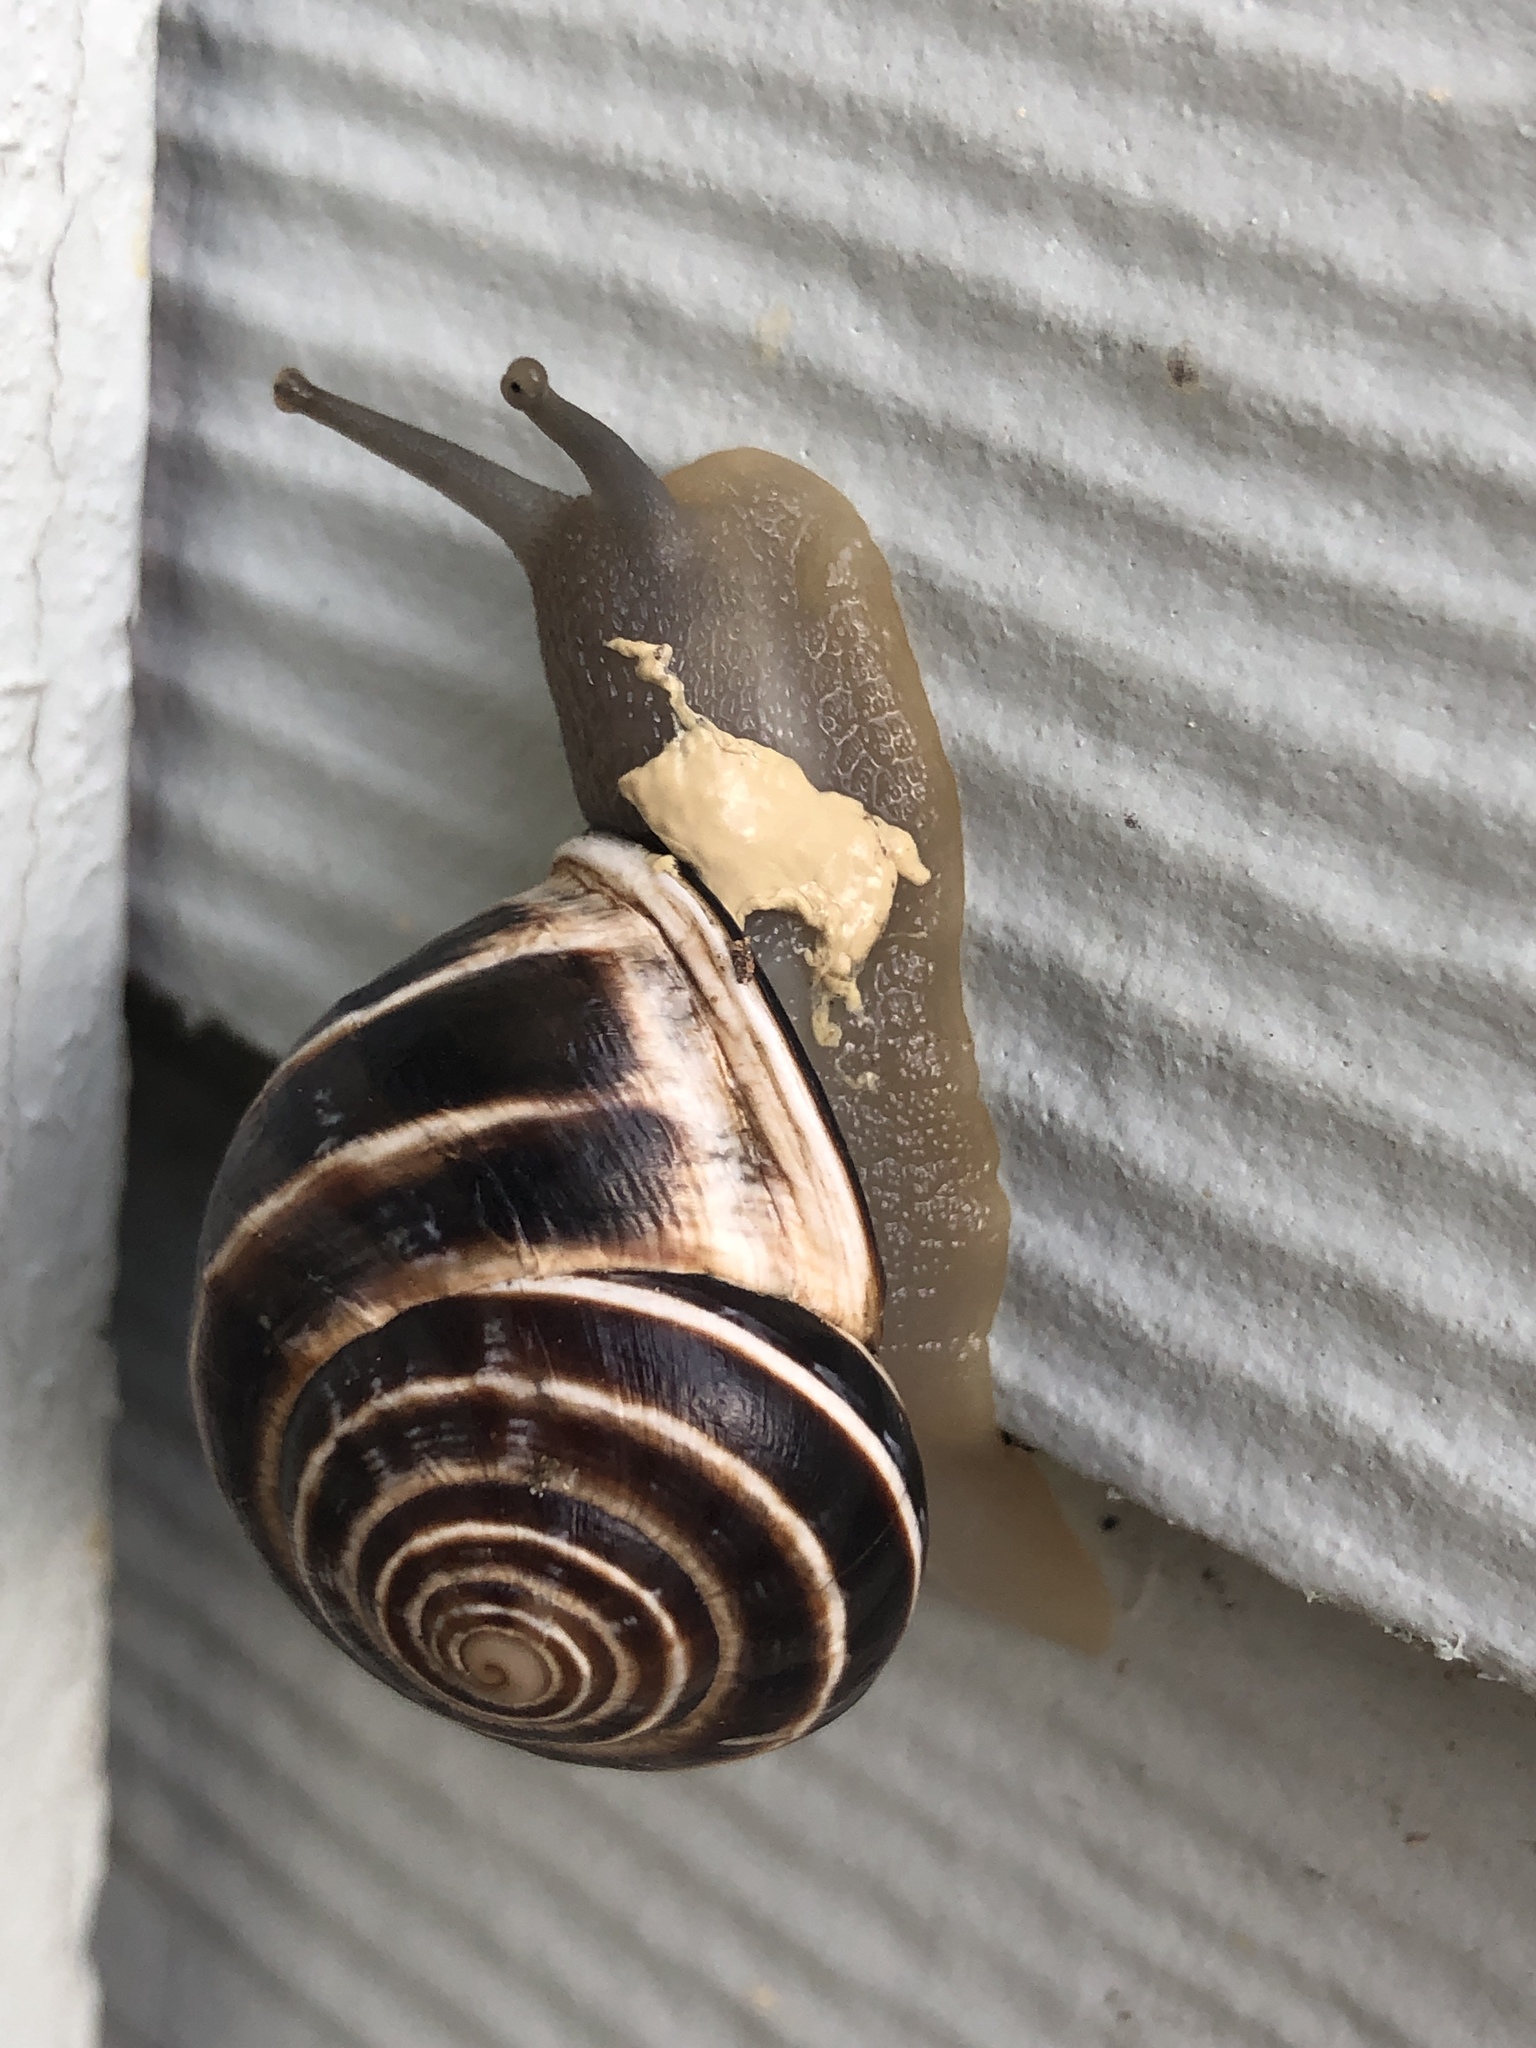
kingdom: Animalia
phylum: Mollusca
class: Gastropoda
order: Stylommatophora
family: Helicidae
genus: Otala
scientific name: Otala lactea
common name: Milk snail
